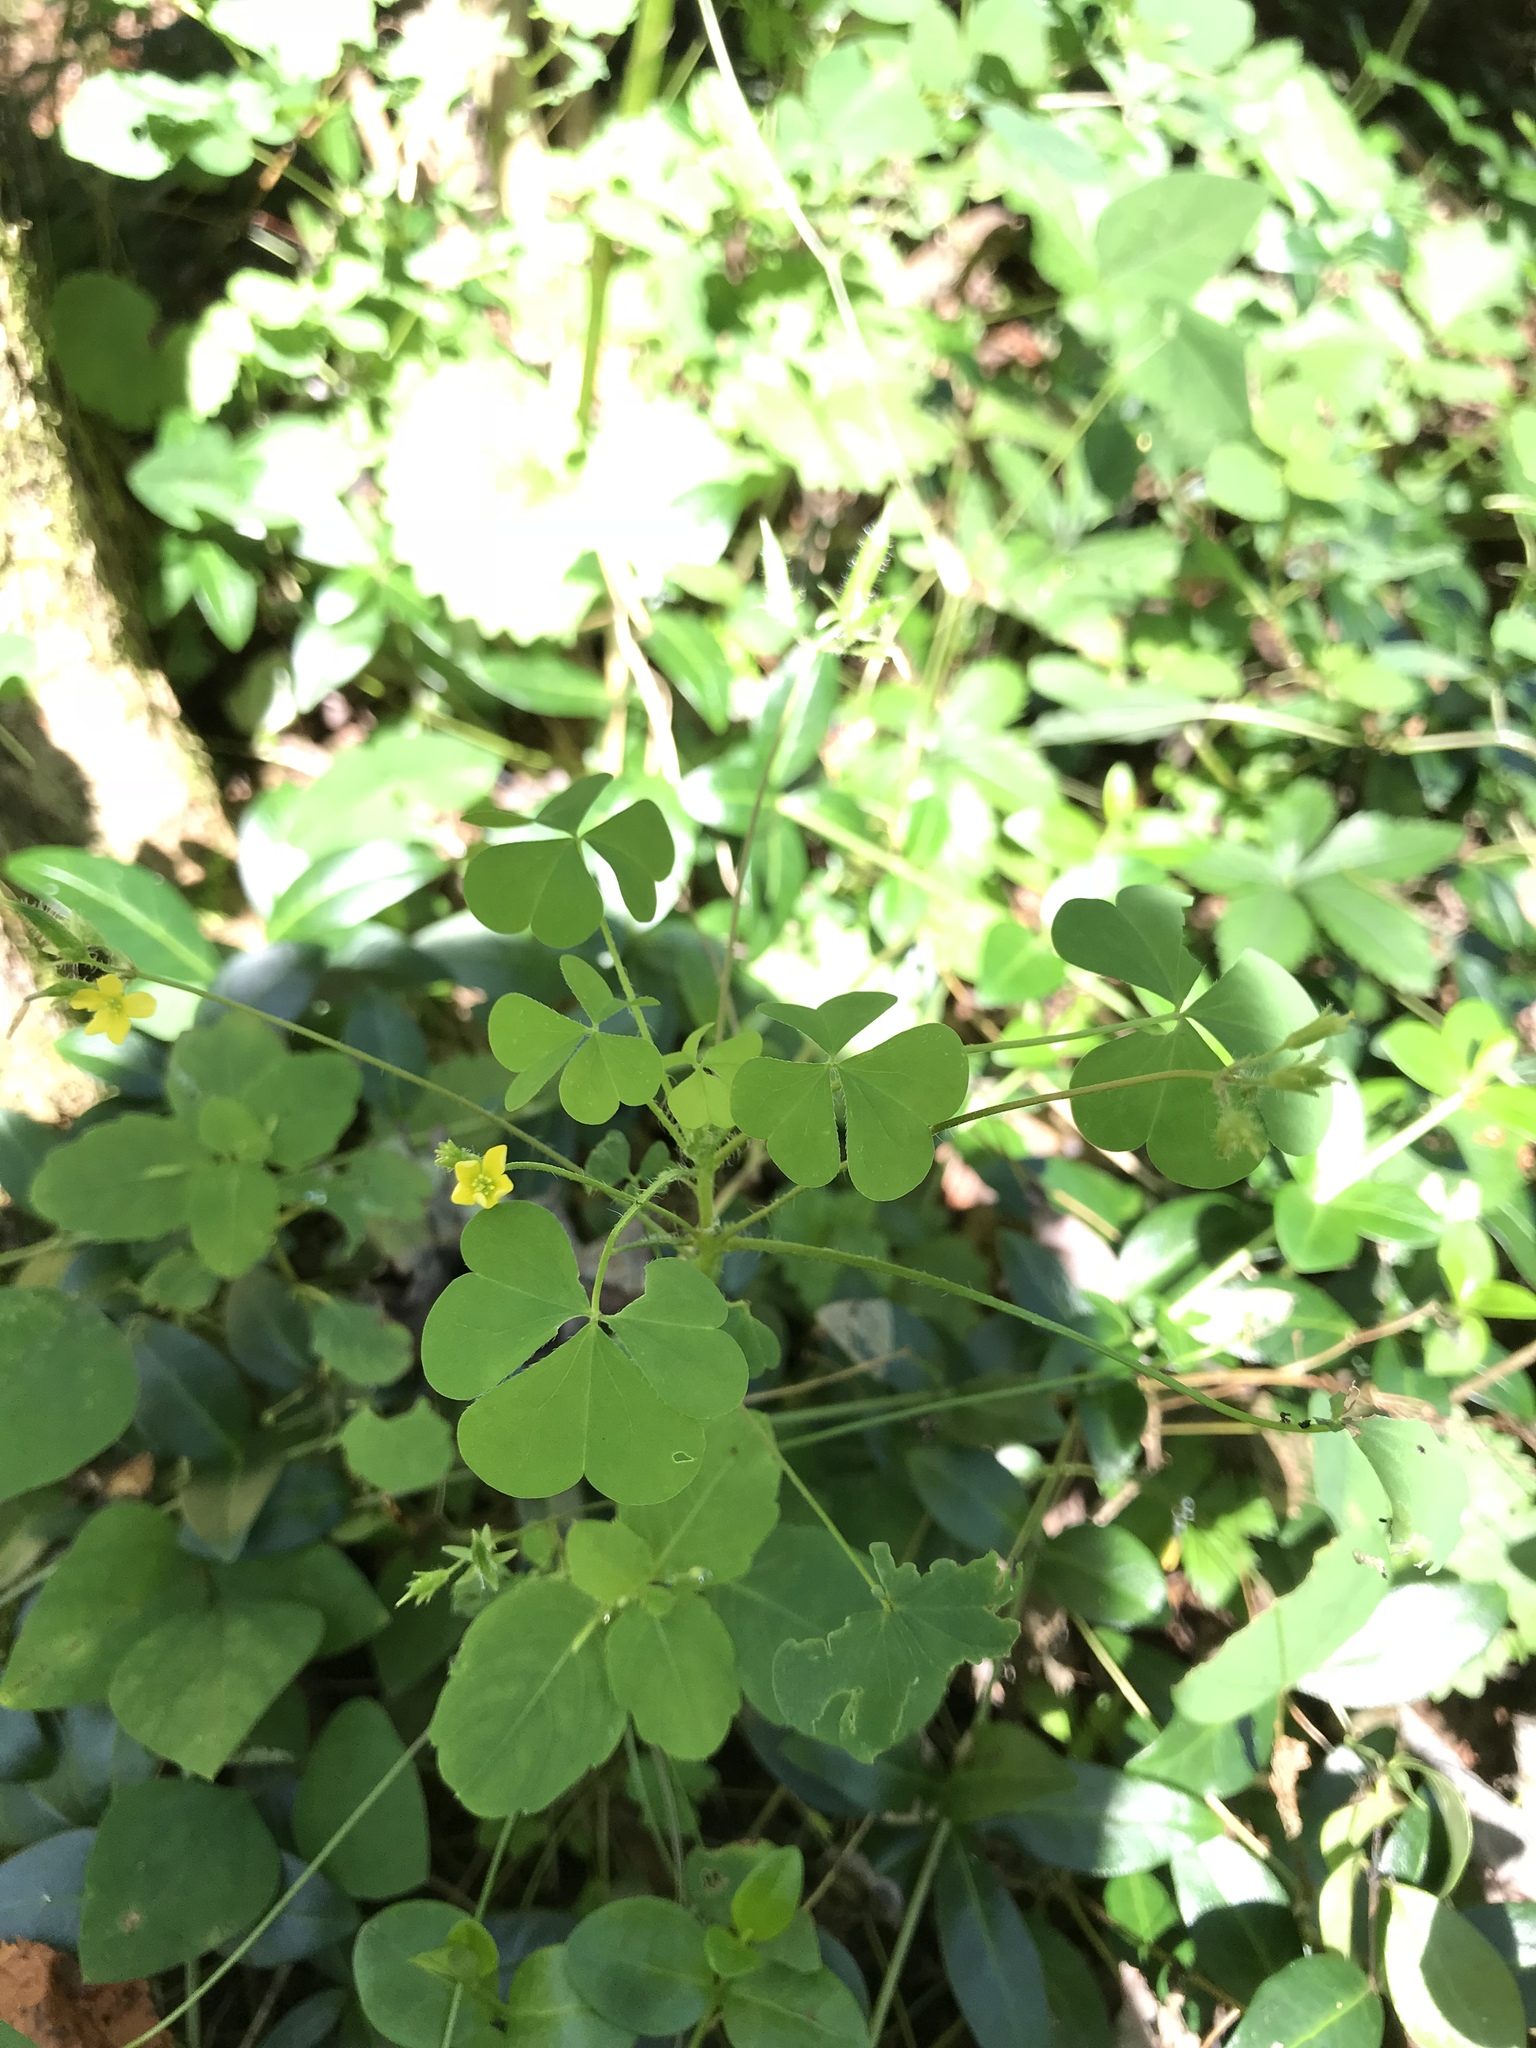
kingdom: Plantae
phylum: Tracheophyta
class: Magnoliopsida
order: Oxalidales
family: Oxalidaceae
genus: Oxalis
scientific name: Oxalis stricta
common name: Upright yellow-sorrel
